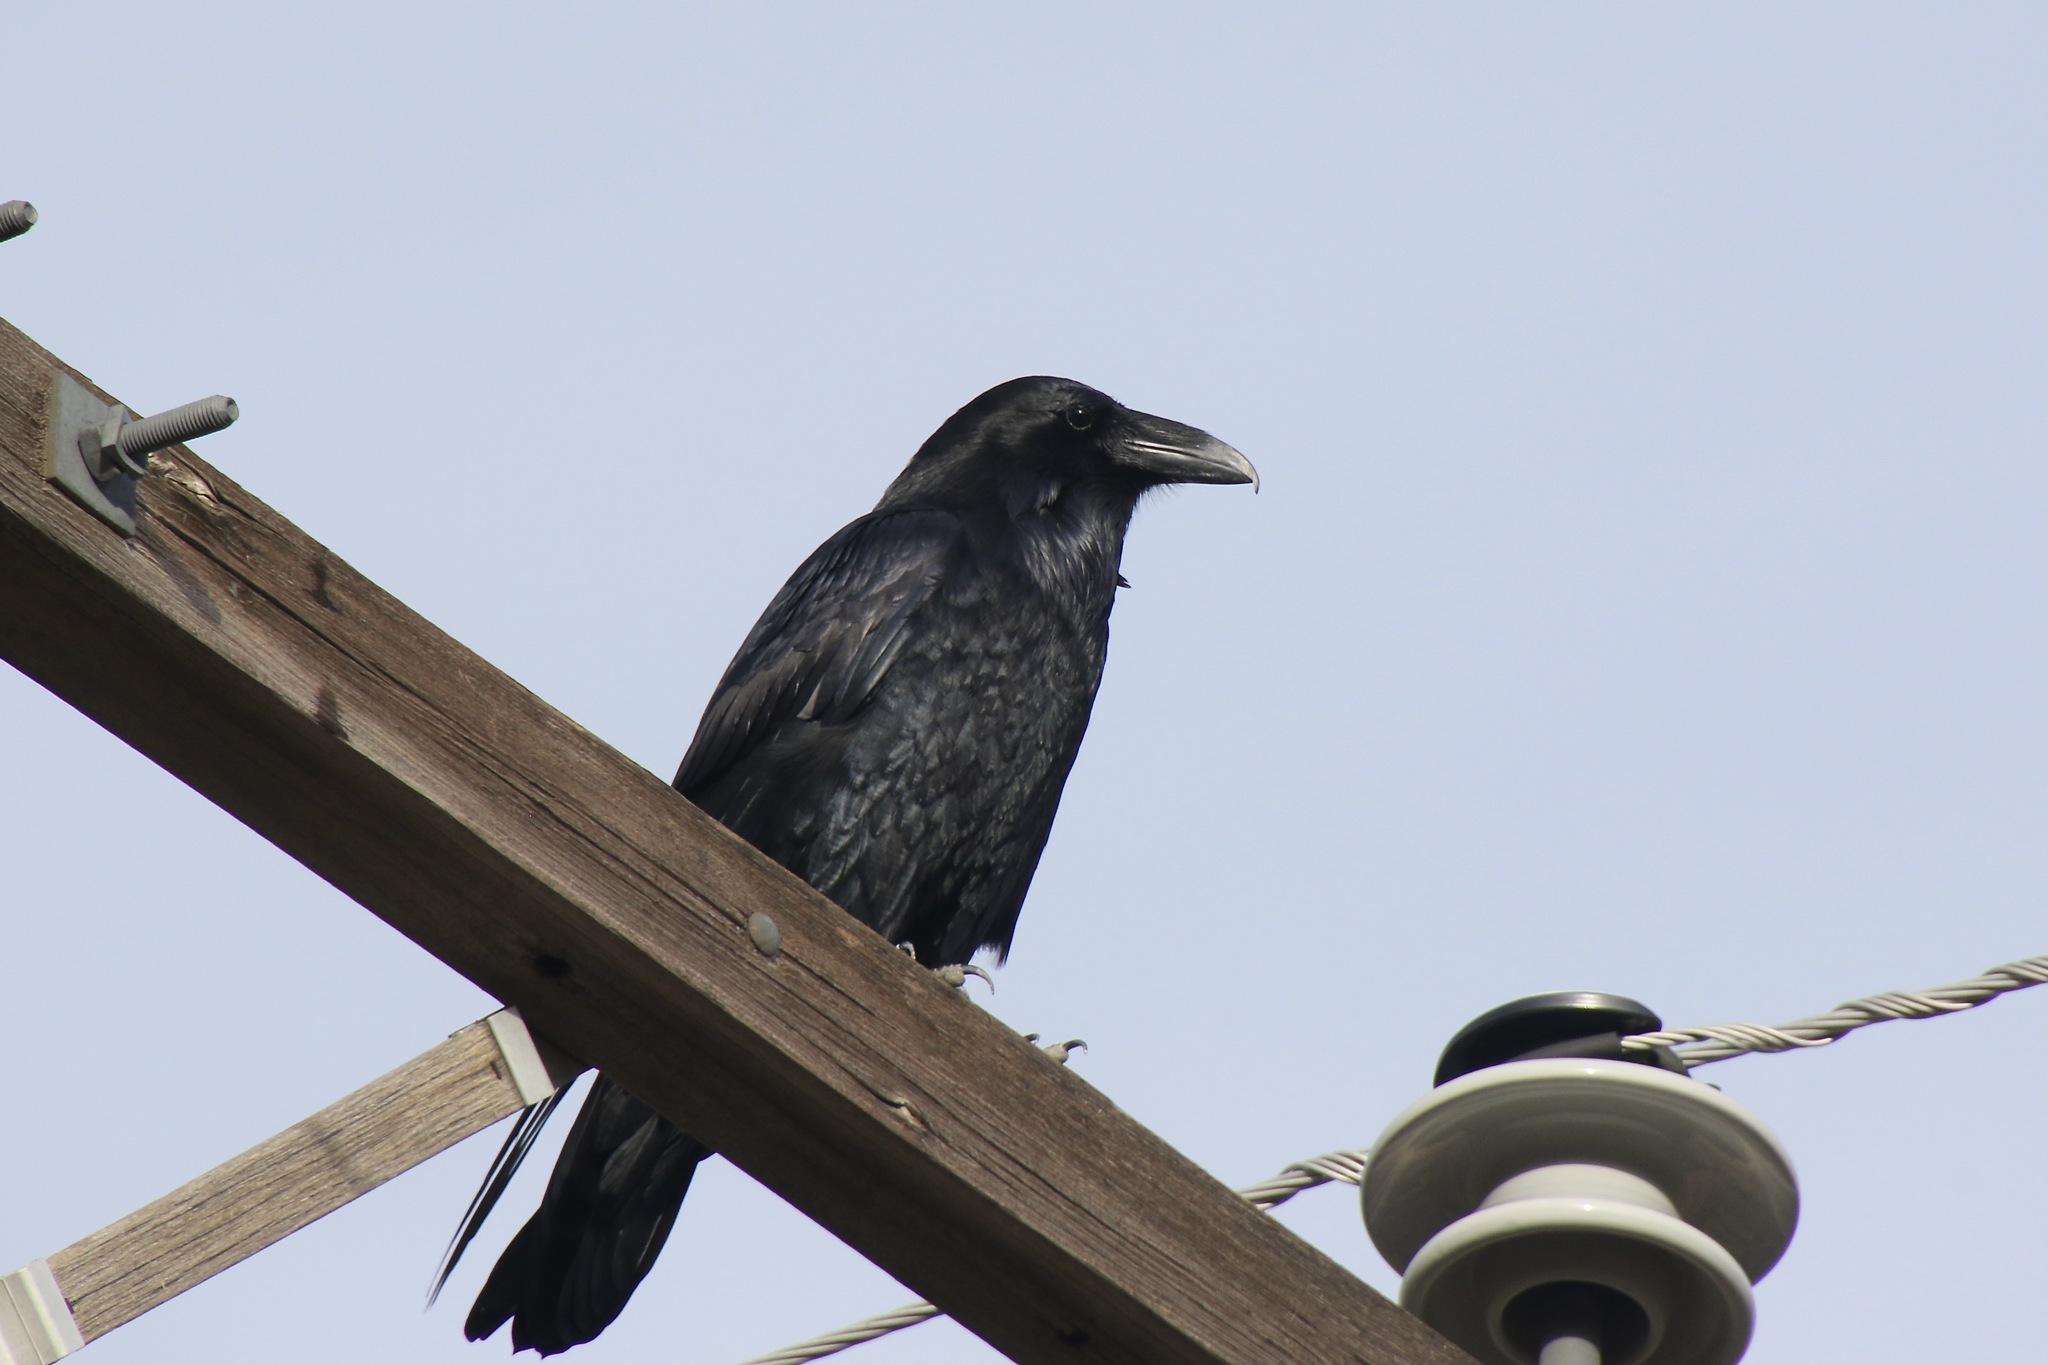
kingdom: Animalia
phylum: Chordata
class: Aves
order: Passeriformes
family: Corvidae
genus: Corvus
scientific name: Corvus corax
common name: Common raven
